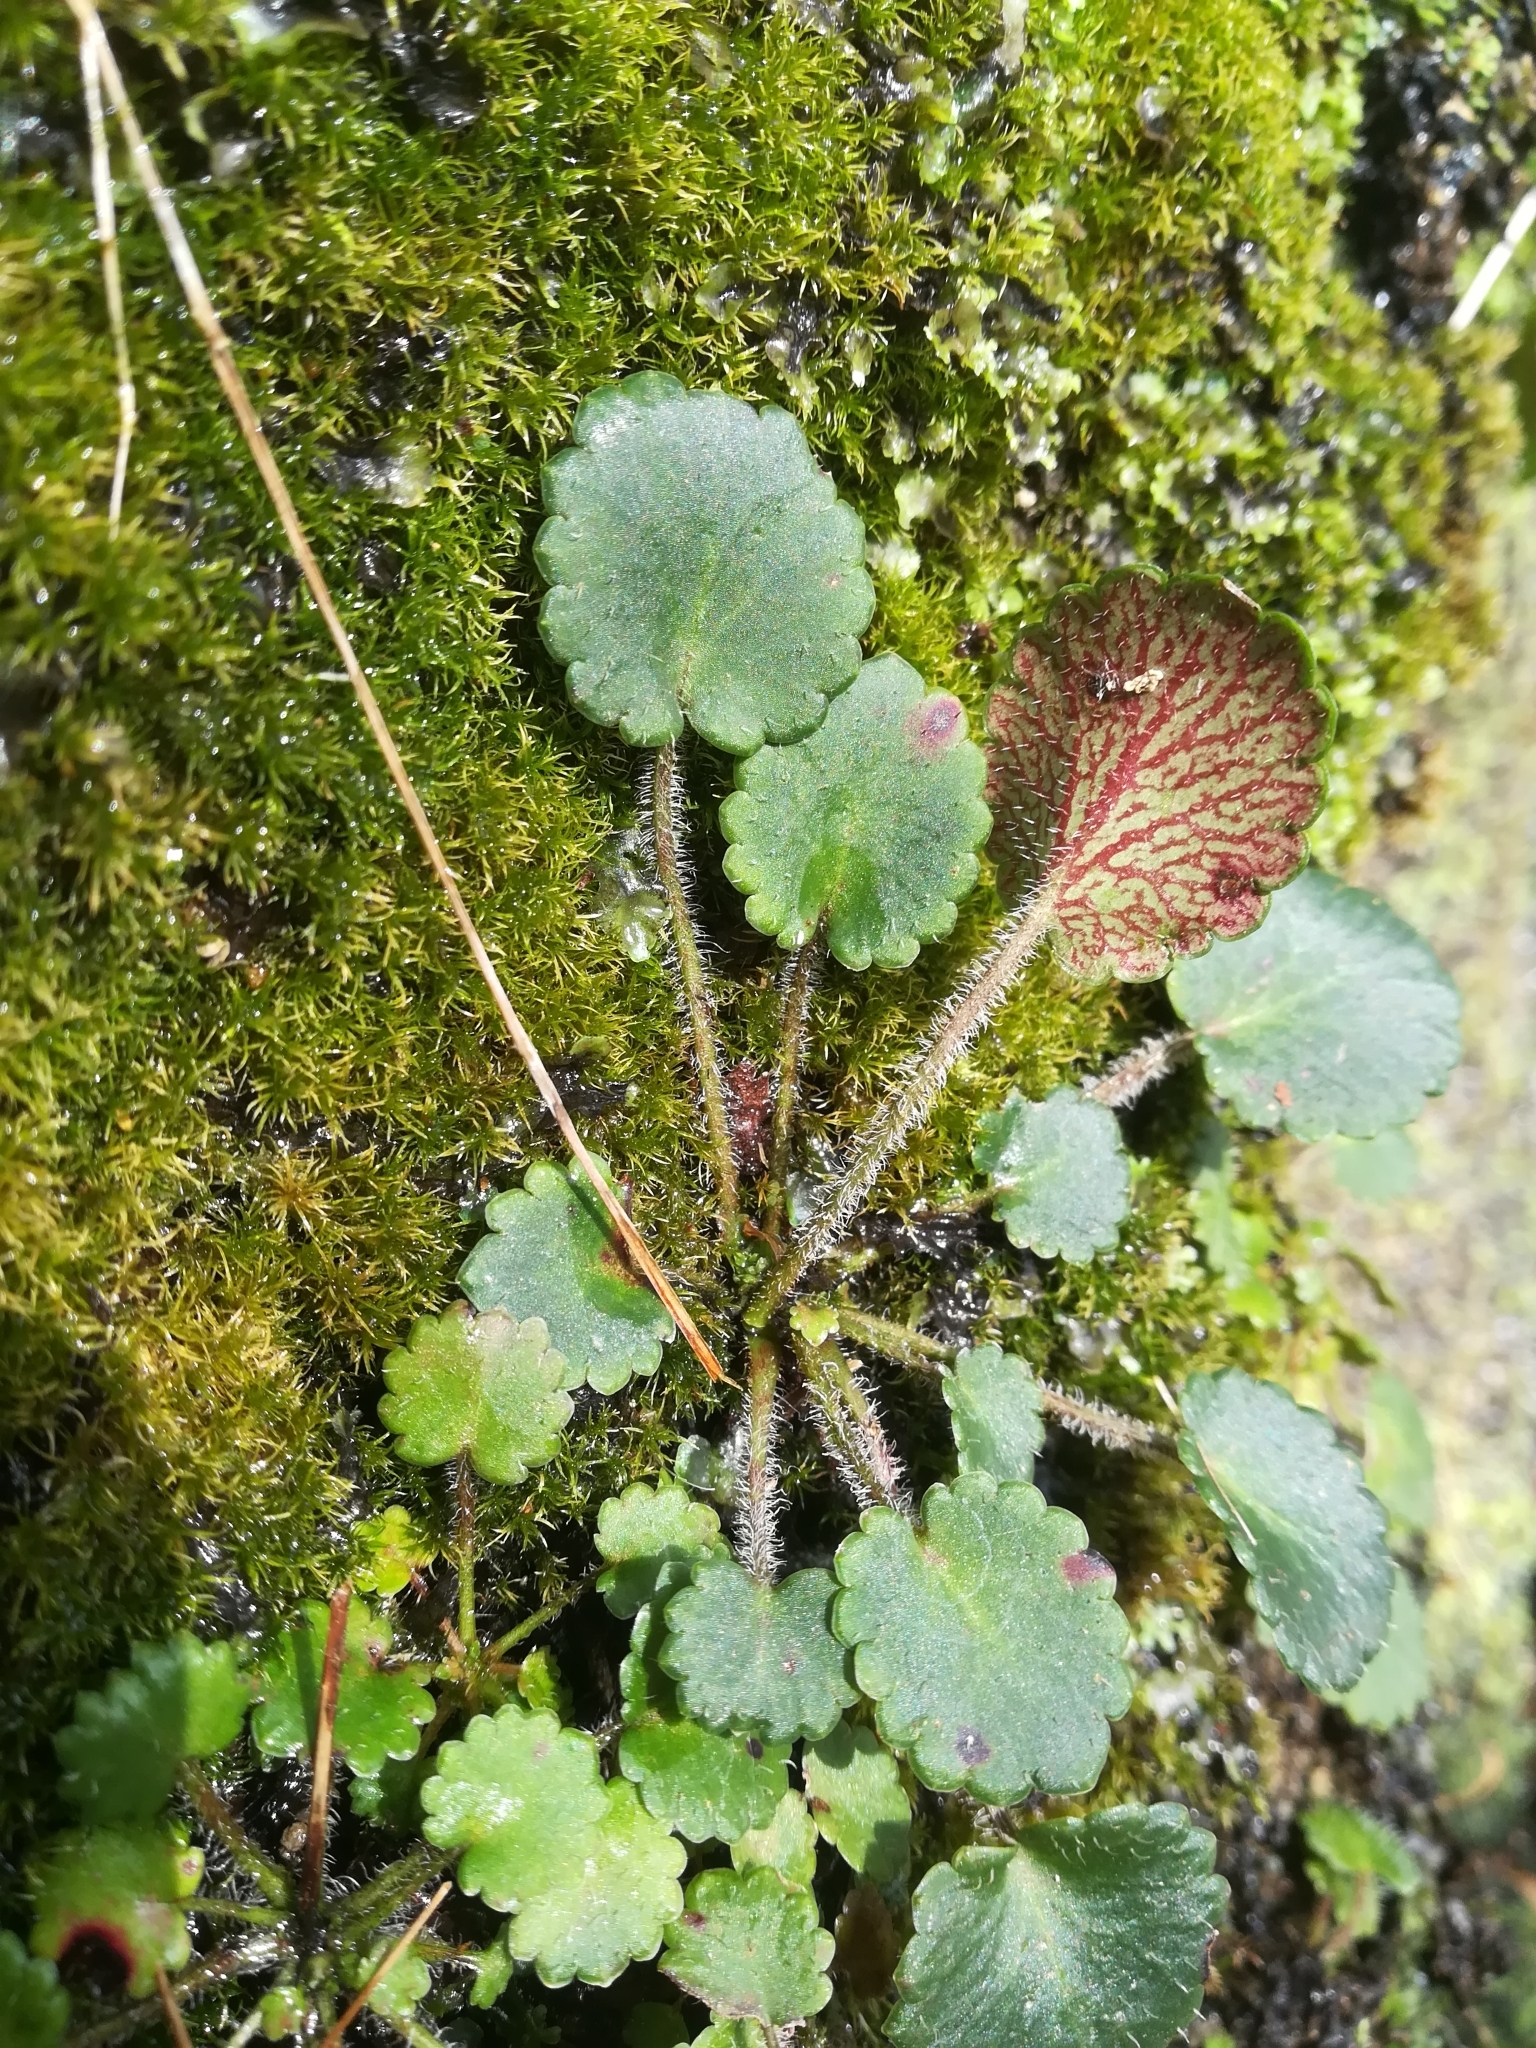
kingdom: Plantae
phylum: Tracheophyta
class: Magnoliopsida
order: Saxifragales
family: Saxifragaceae
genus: Saxifraga
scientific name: Saxifraga hirsuta
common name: Kidney saxifrage
